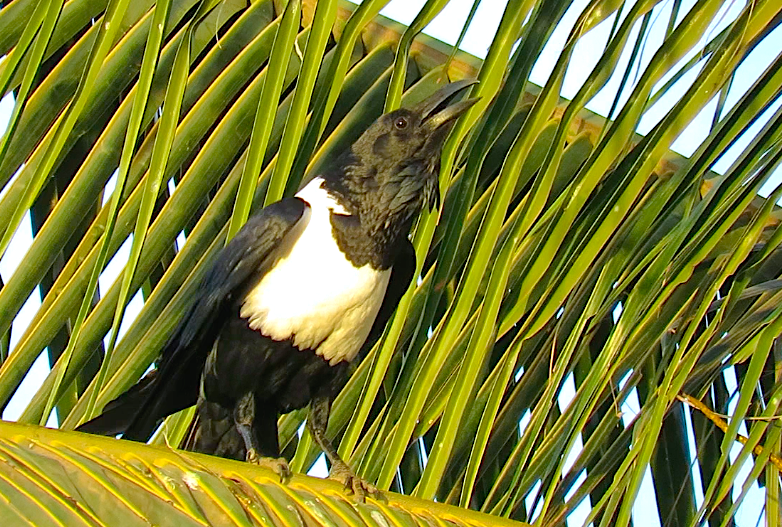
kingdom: Animalia
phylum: Chordata
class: Aves
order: Passeriformes
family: Corvidae
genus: Corvus
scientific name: Corvus albus
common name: Pied crow
